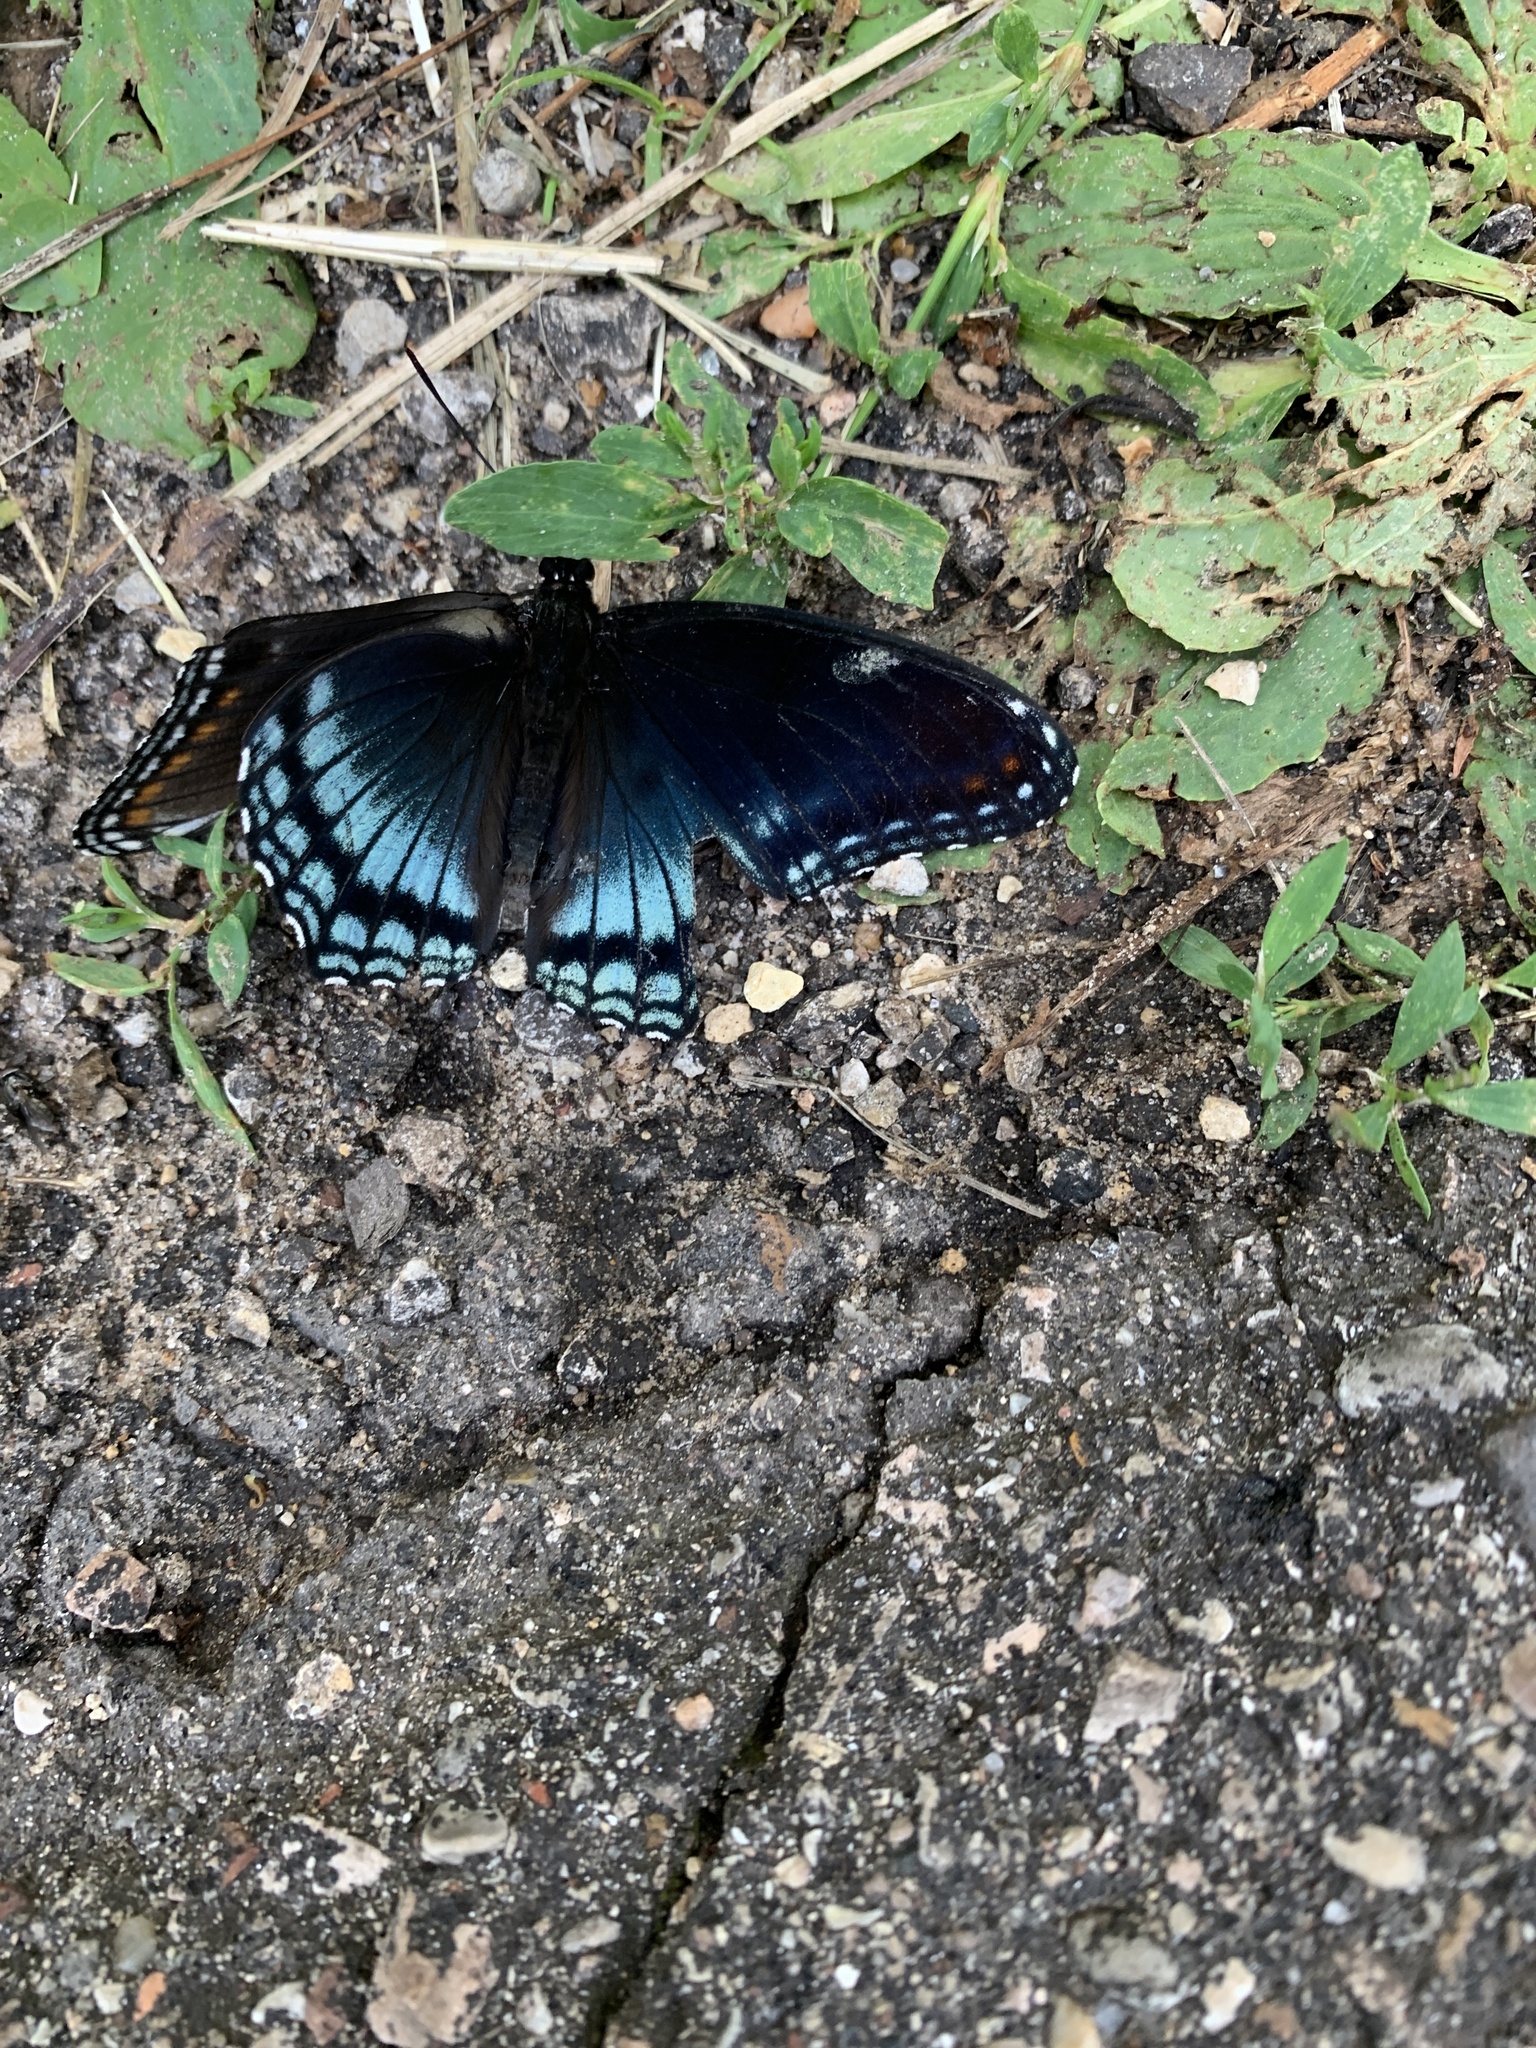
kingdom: Animalia
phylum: Arthropoda
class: Insecta
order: Lepidoptera
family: Nymphalidae
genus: Limenitis
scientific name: Limenitis astyanax
